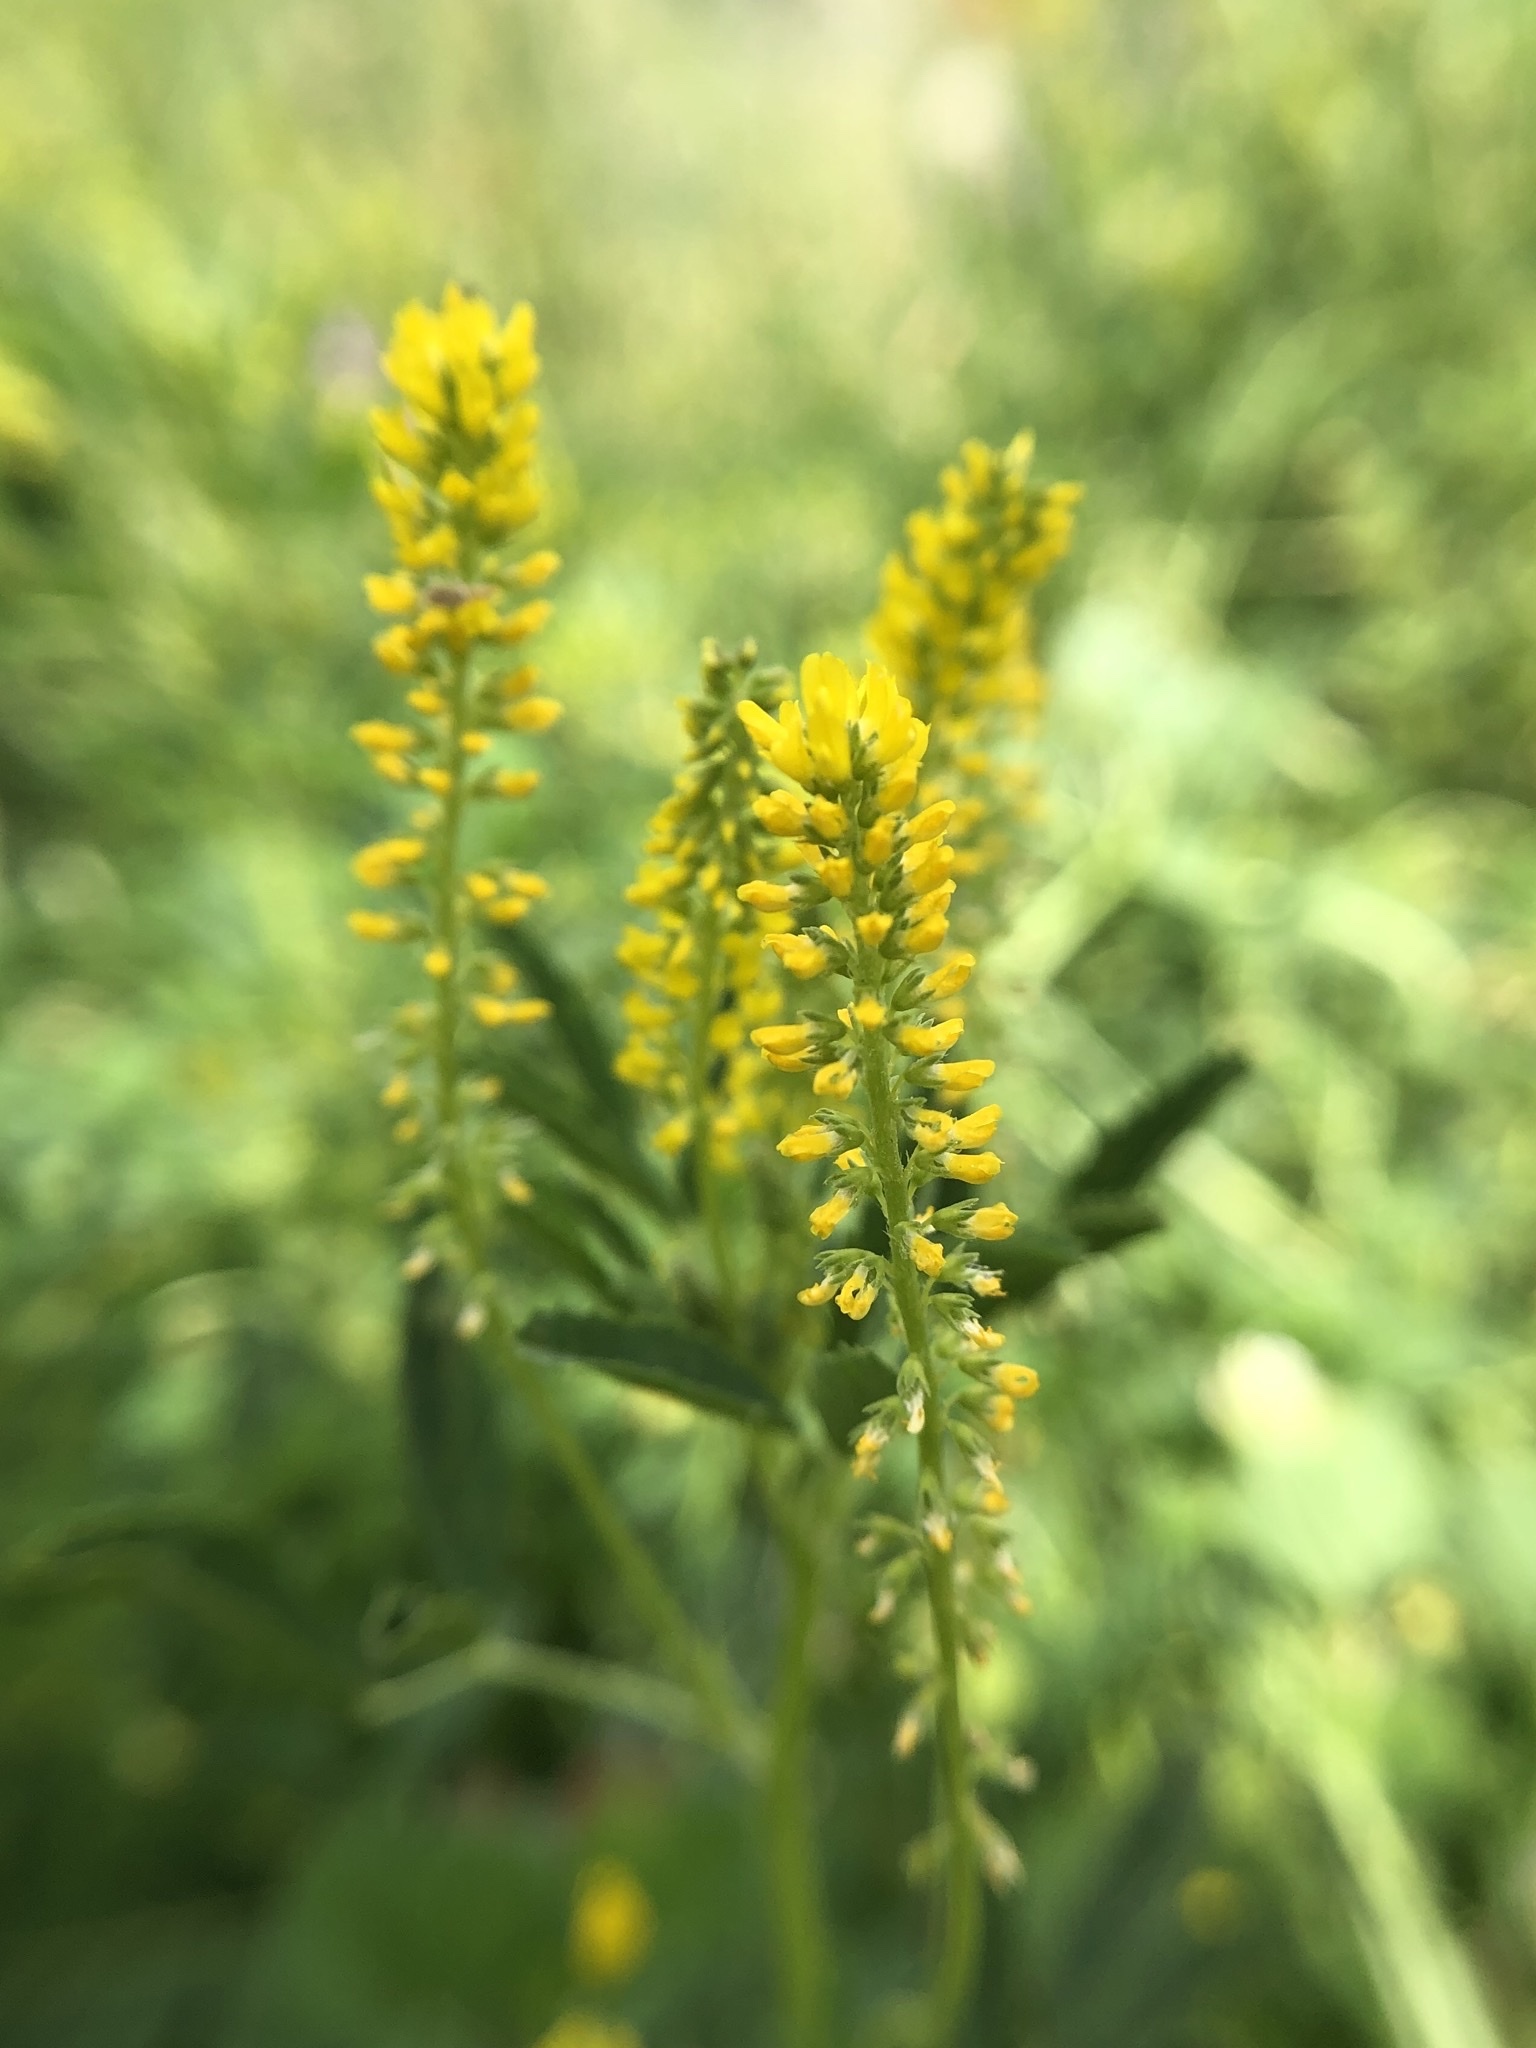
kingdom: Plantae
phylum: Tracheophyta
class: Magnoliopsida
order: Fabales
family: Fabaceae
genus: Melilotus
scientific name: Melilotus indicus
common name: Small melilot
